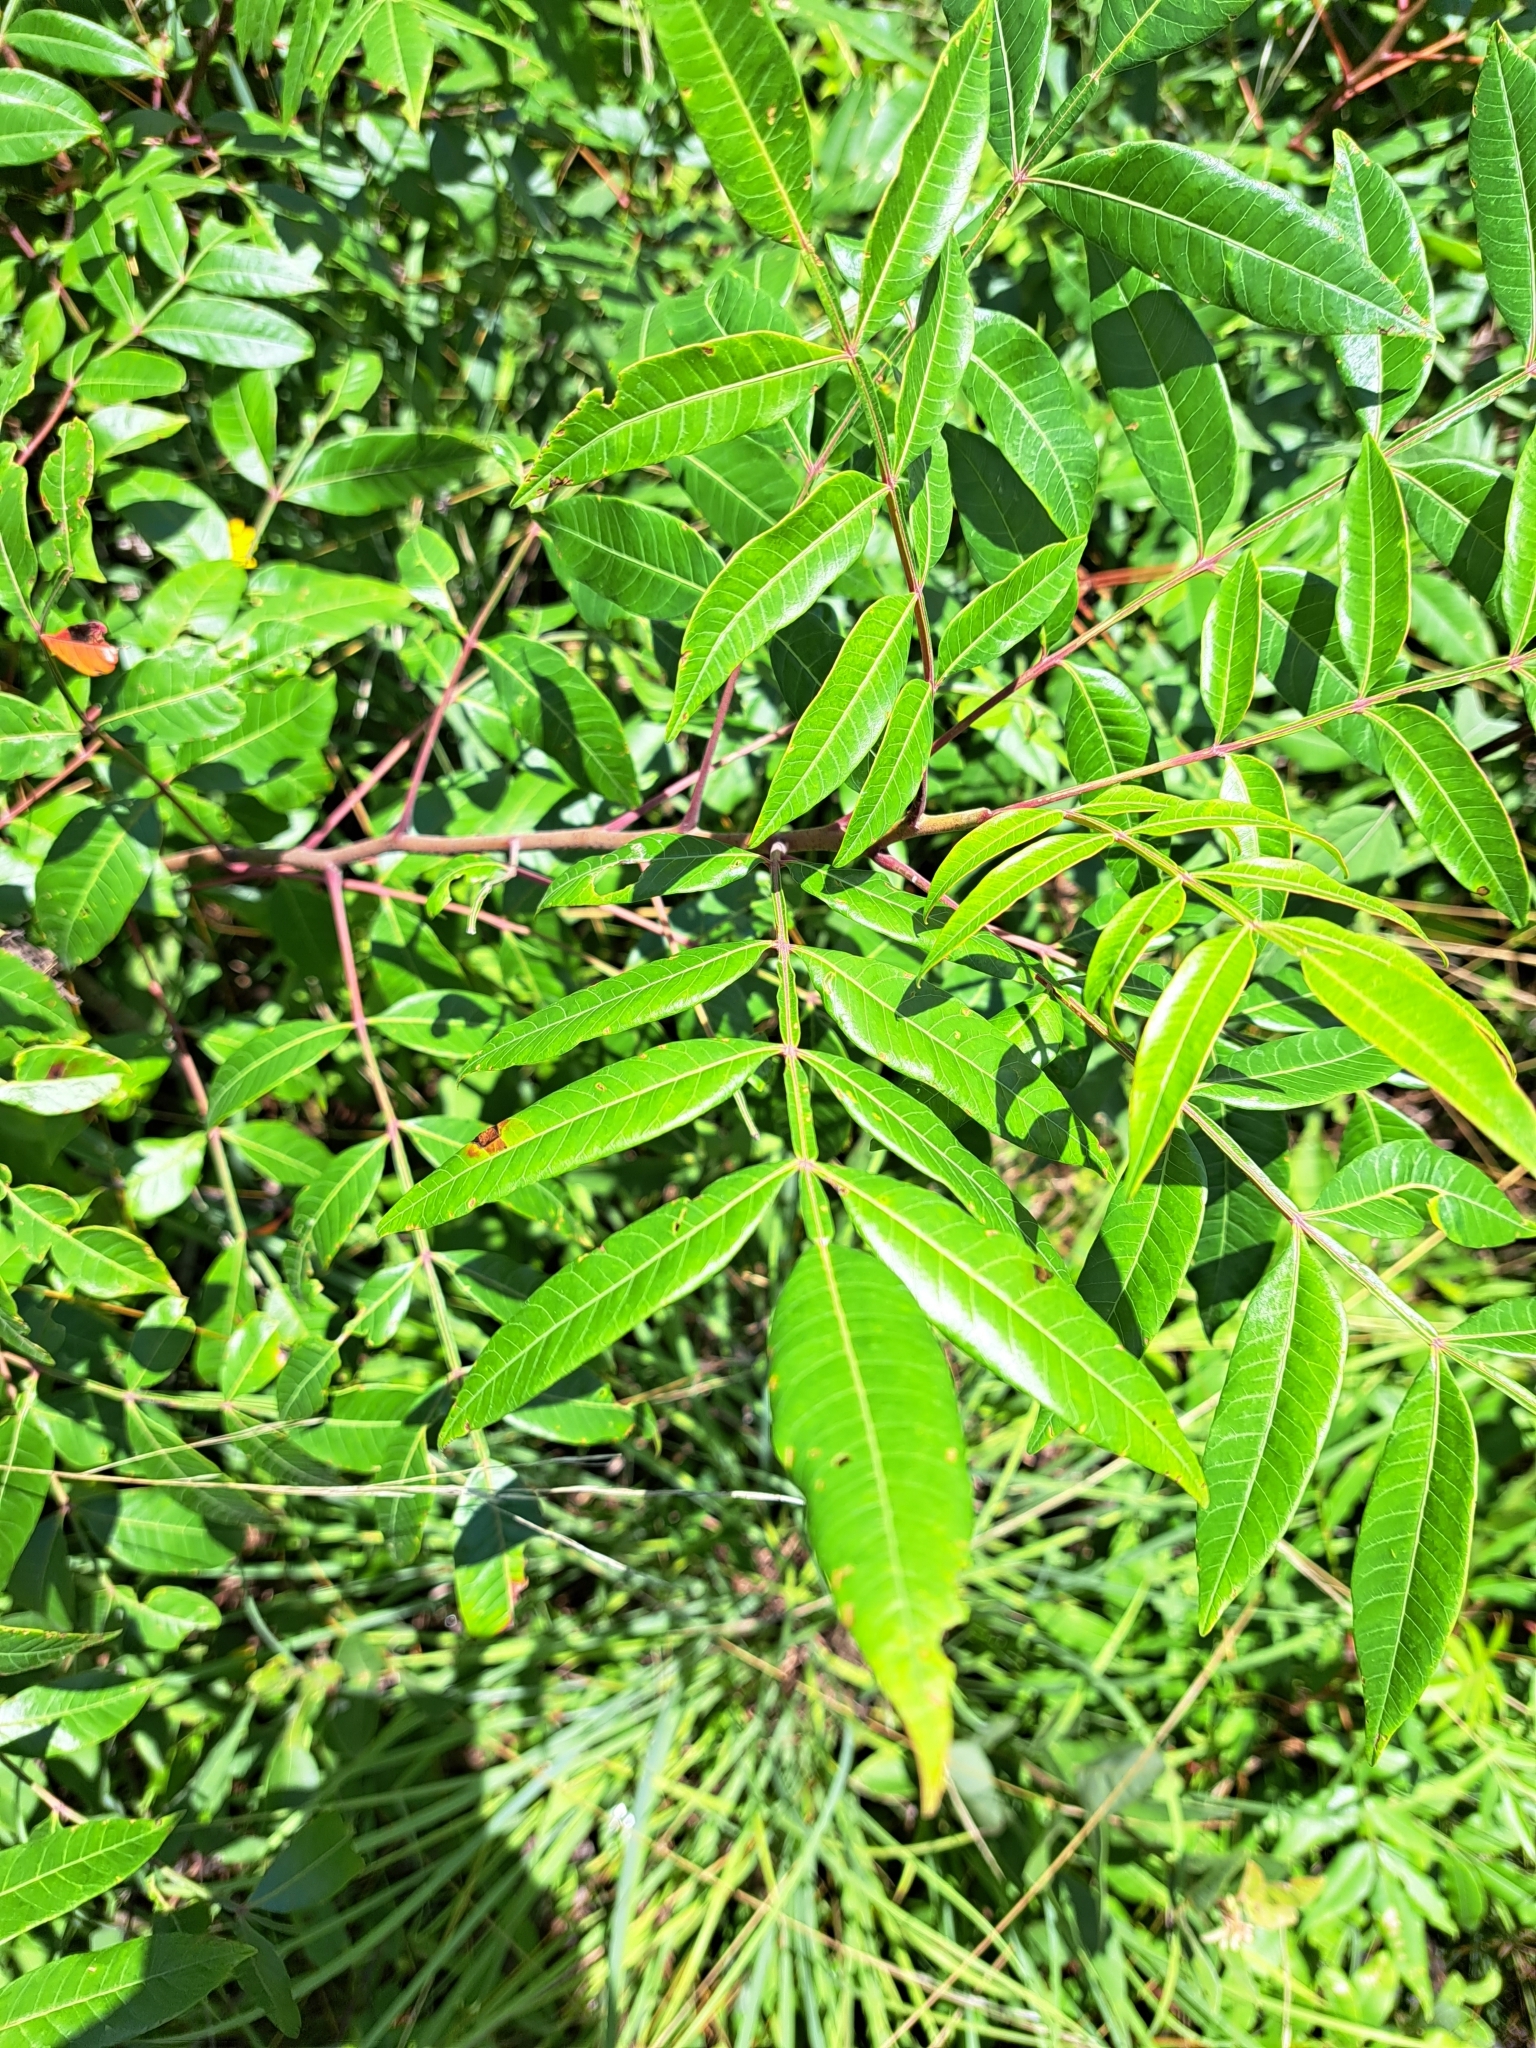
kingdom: Plantae
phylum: Tracheophyta
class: Magnoliopsida
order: Sapindales
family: Anacardiaceae
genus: Rhus
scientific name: Rhus copallina
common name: Shining sumac
